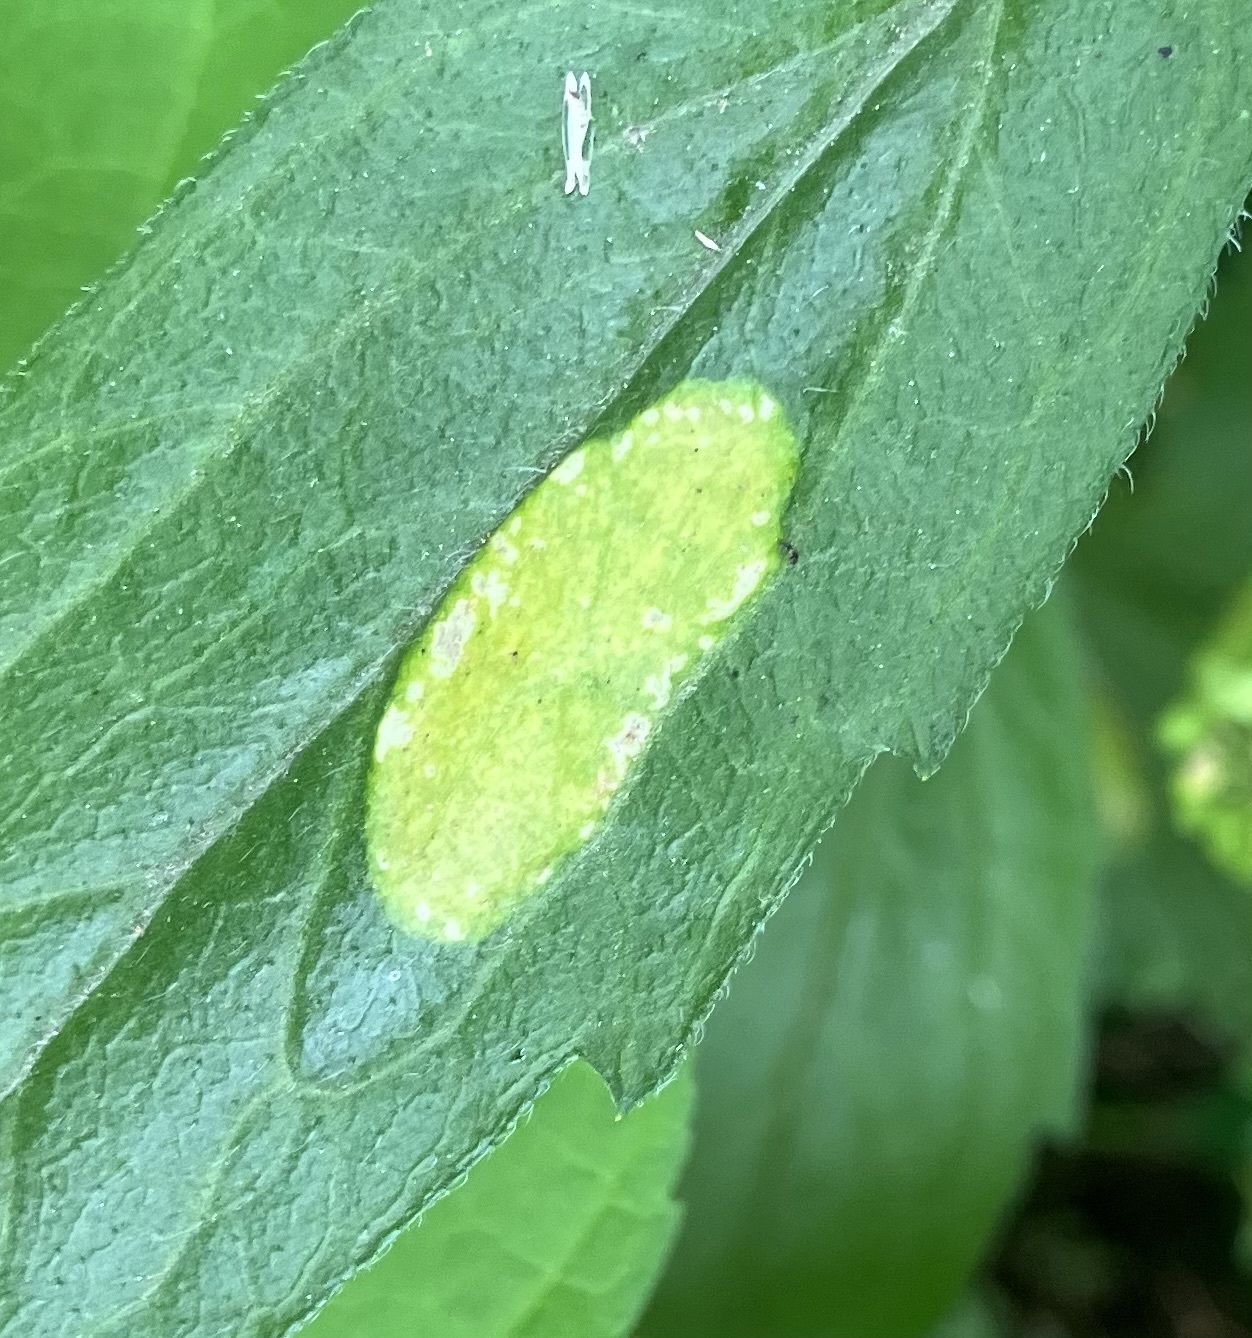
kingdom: Animalia
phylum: Arthropoda
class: Insecta
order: Lepidoptera
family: Gracillariidae
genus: Parectopa
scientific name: Parectopa plantaginisella
